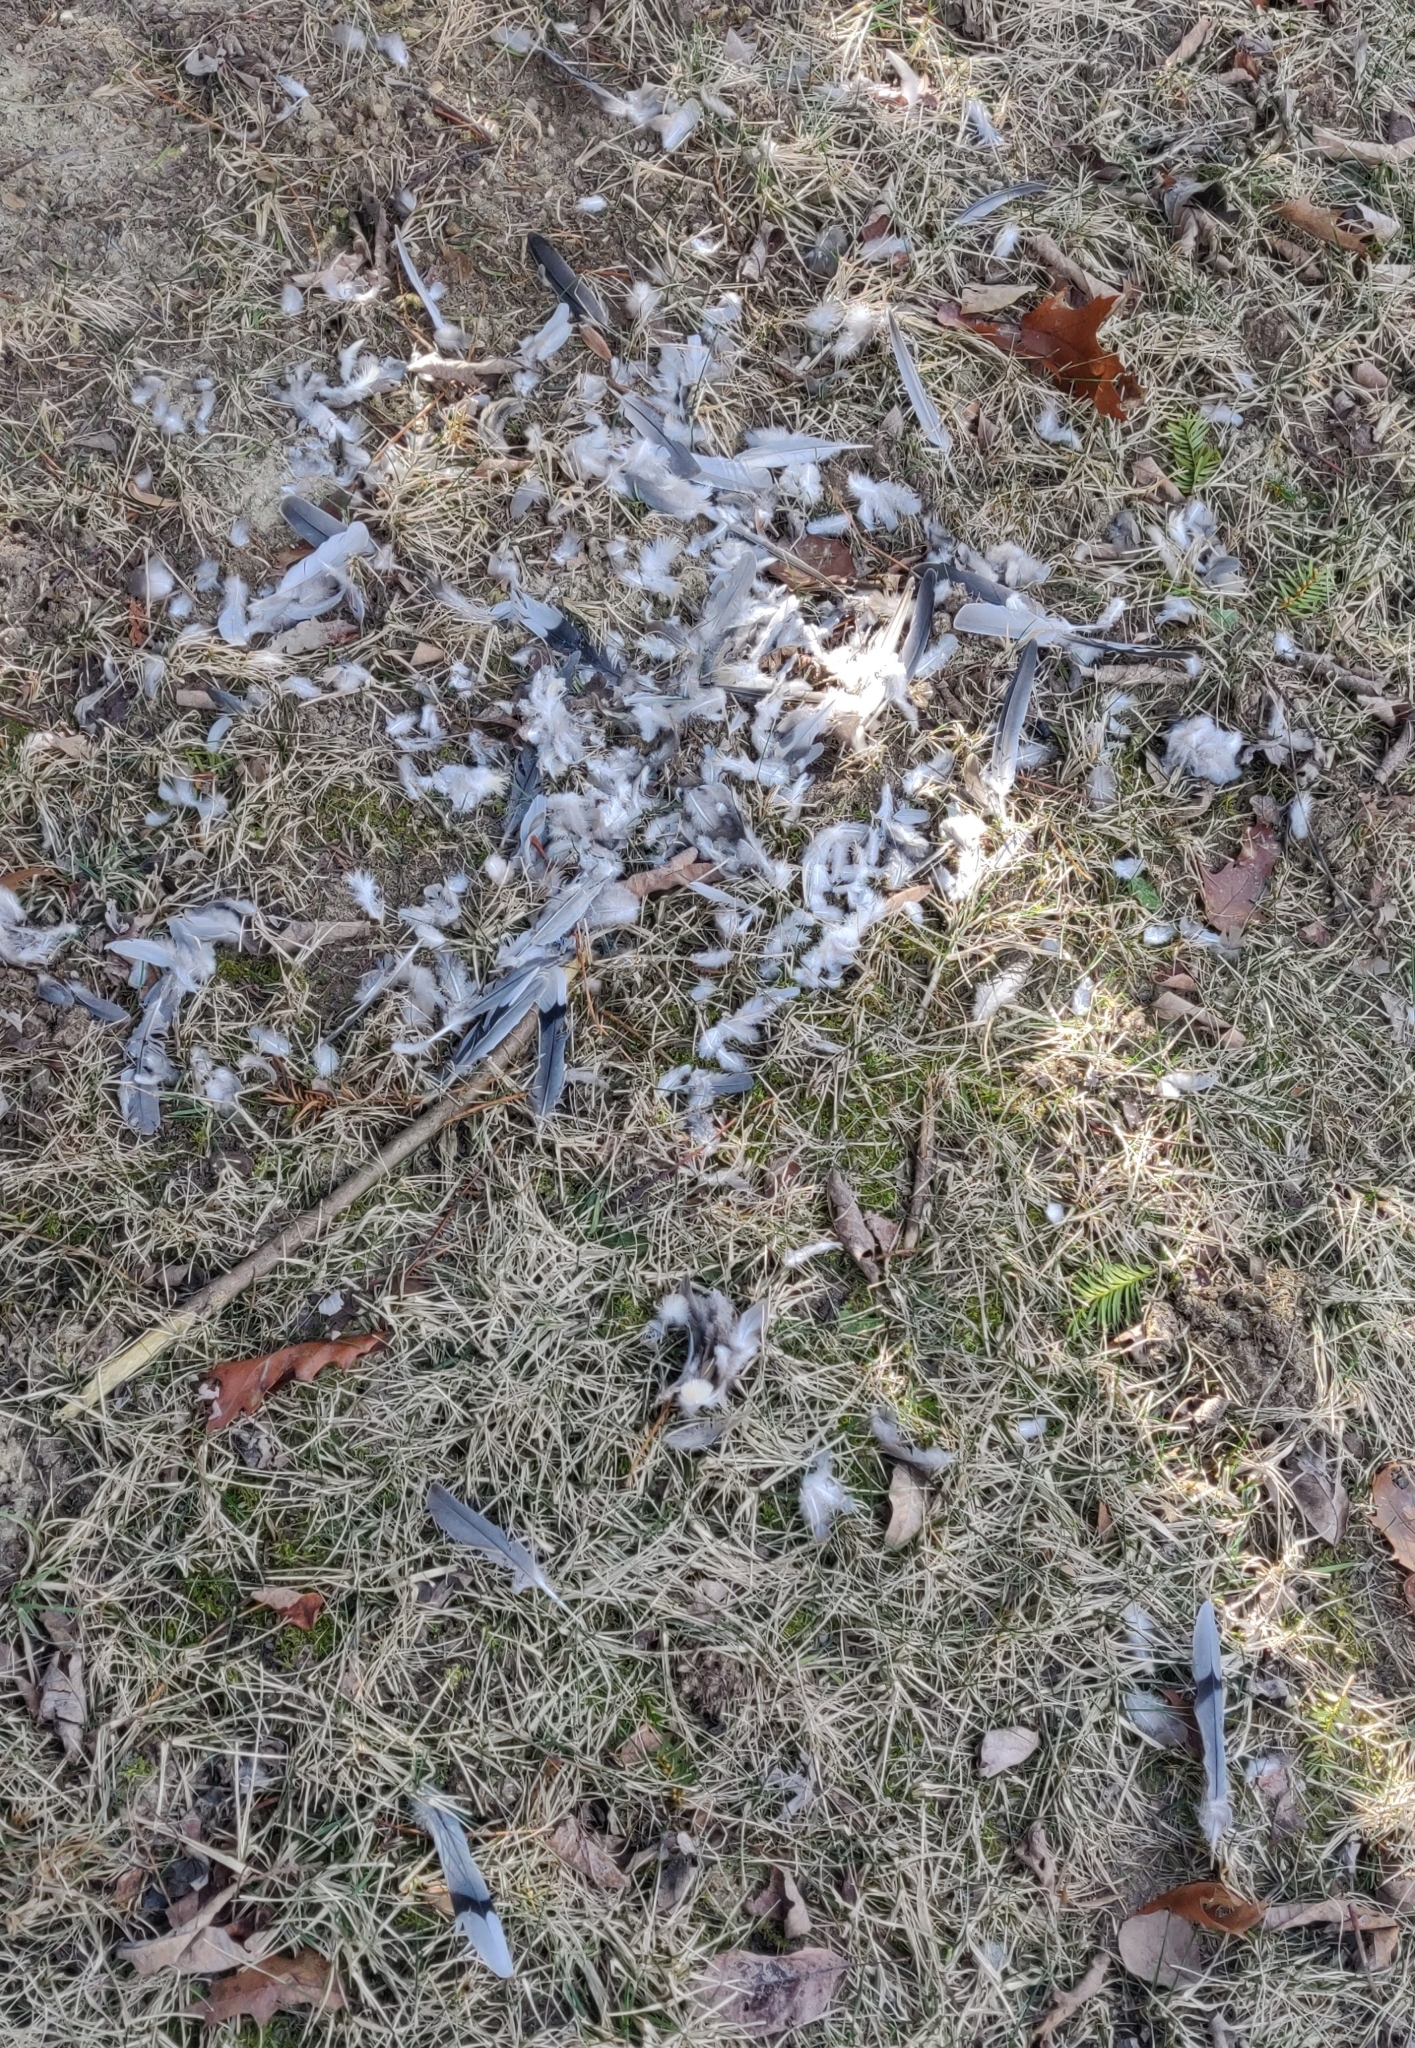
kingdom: Animalia
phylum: Chordata
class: Aves
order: Columbiformes
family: Columbidae
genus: Zenaida
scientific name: Zenaida macroura
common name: Mourning dove
